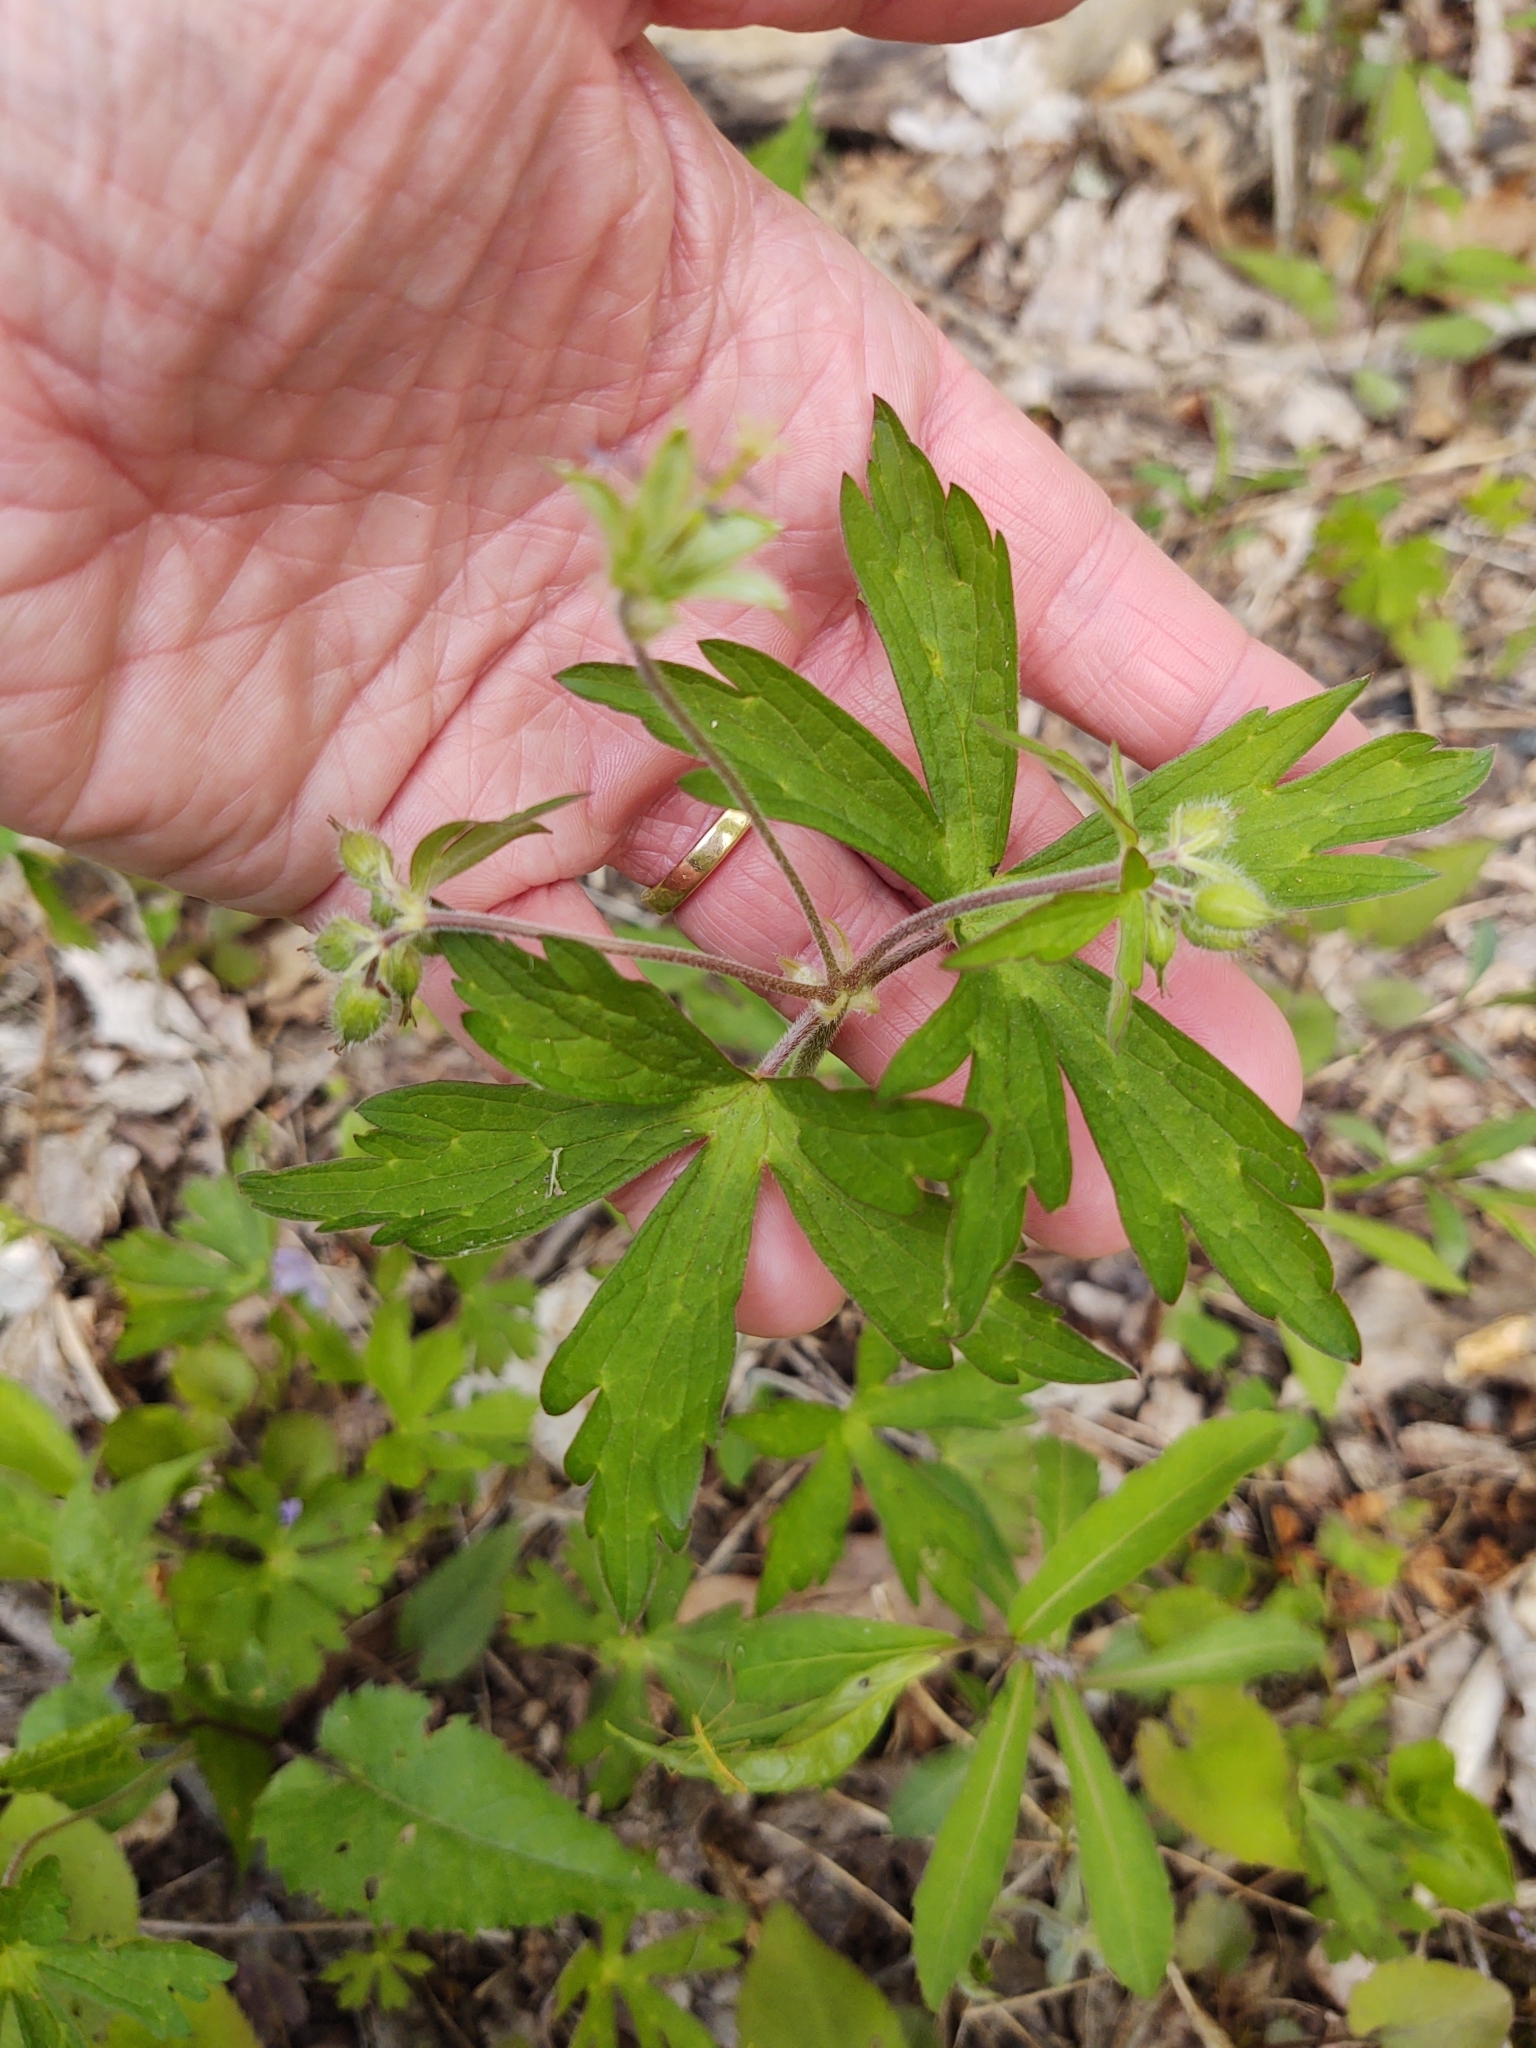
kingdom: Plantae
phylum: Tracheophyta
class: Magnoliopsida
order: Geraniales
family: Geraniaceae
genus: Geranium
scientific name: Geranium maculatum
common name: Spotted geranium
